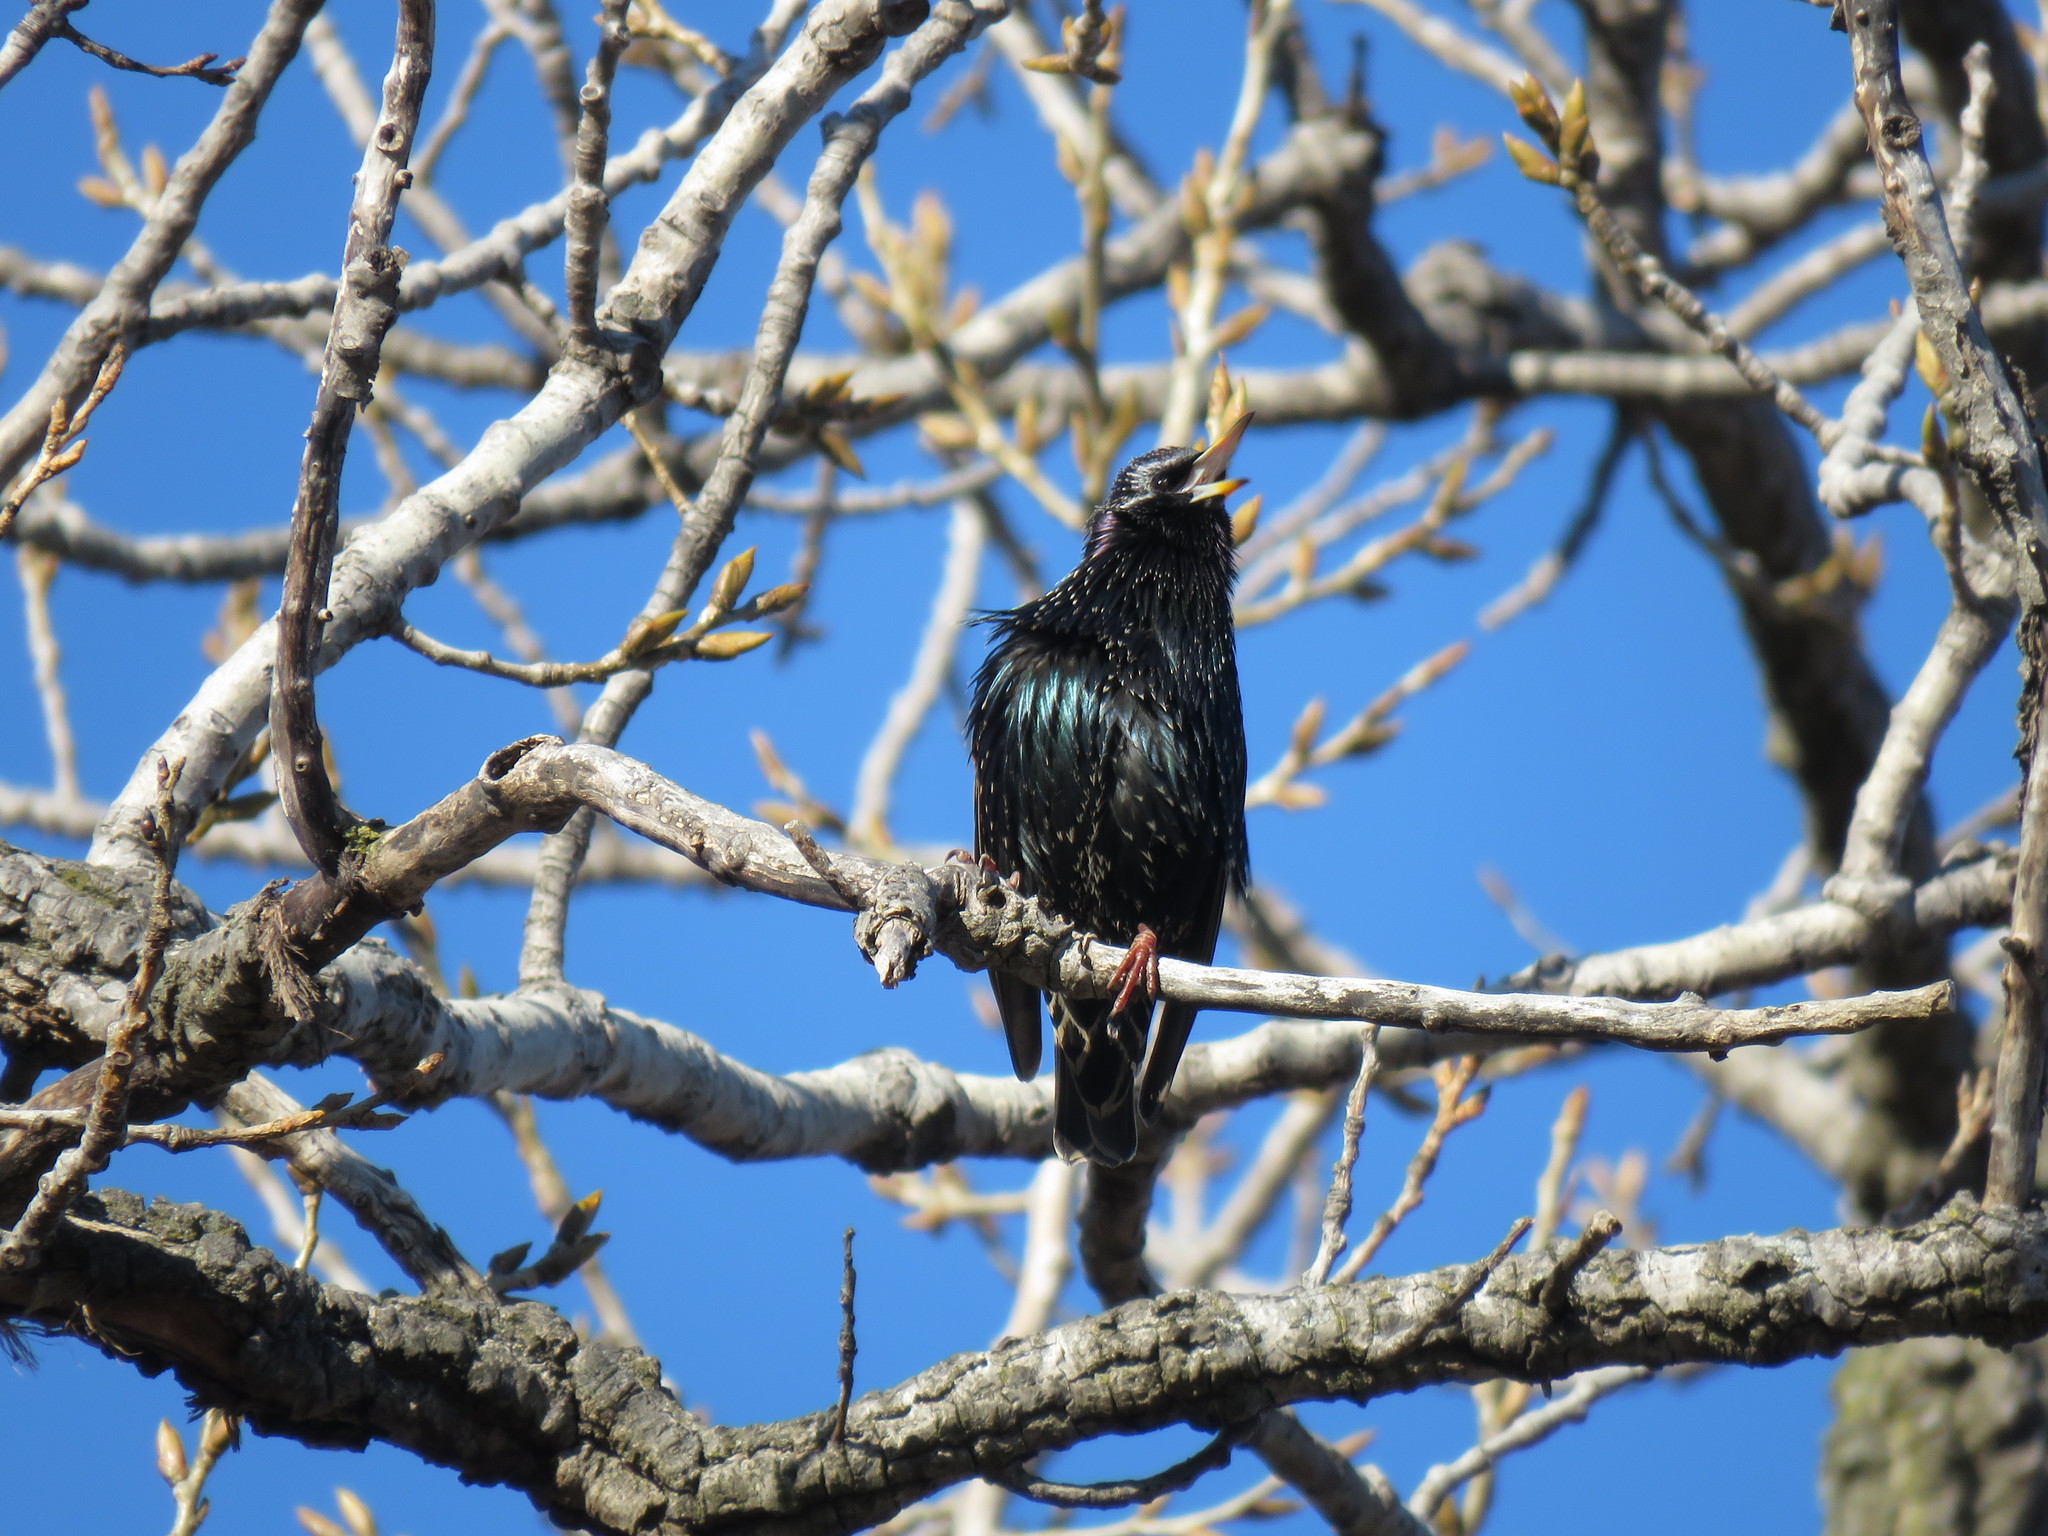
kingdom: Animalia
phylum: Chordata
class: Aves
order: Passeriformes
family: Sturnidae
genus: Sturnus
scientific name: Sturnus vulgaris
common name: Common starling
